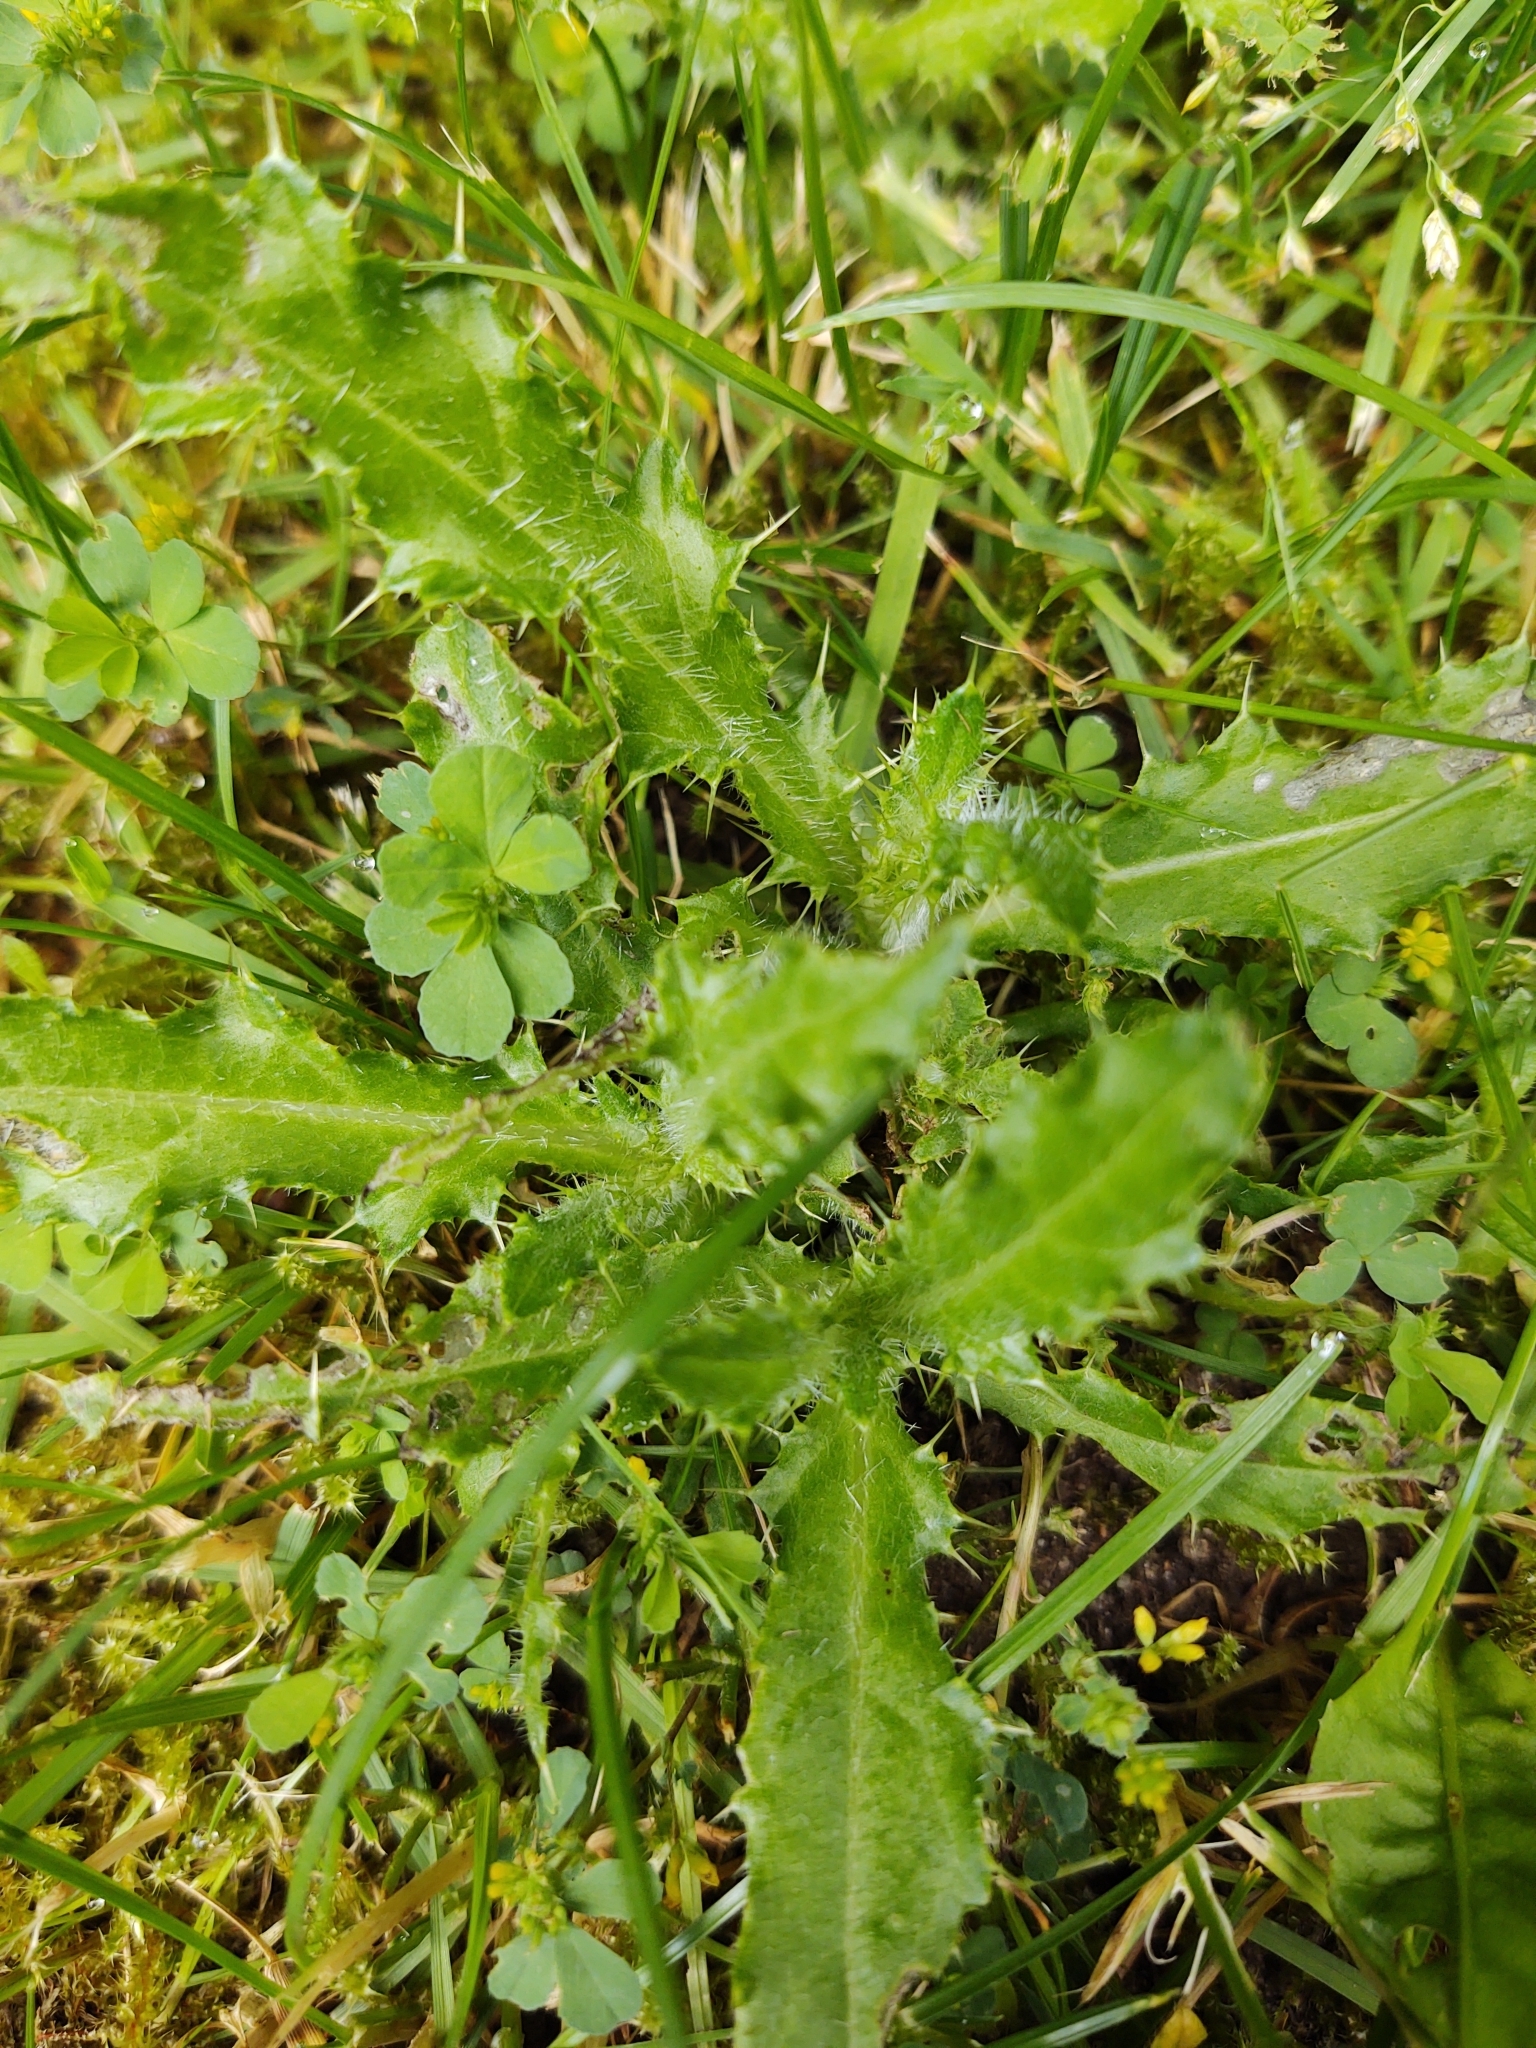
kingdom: Plantae
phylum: Tracheophyta
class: Magnoliopsida
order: Asterales
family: Asteraceae
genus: Cirsium
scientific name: Cirsium arvense
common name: Creeping thistle
